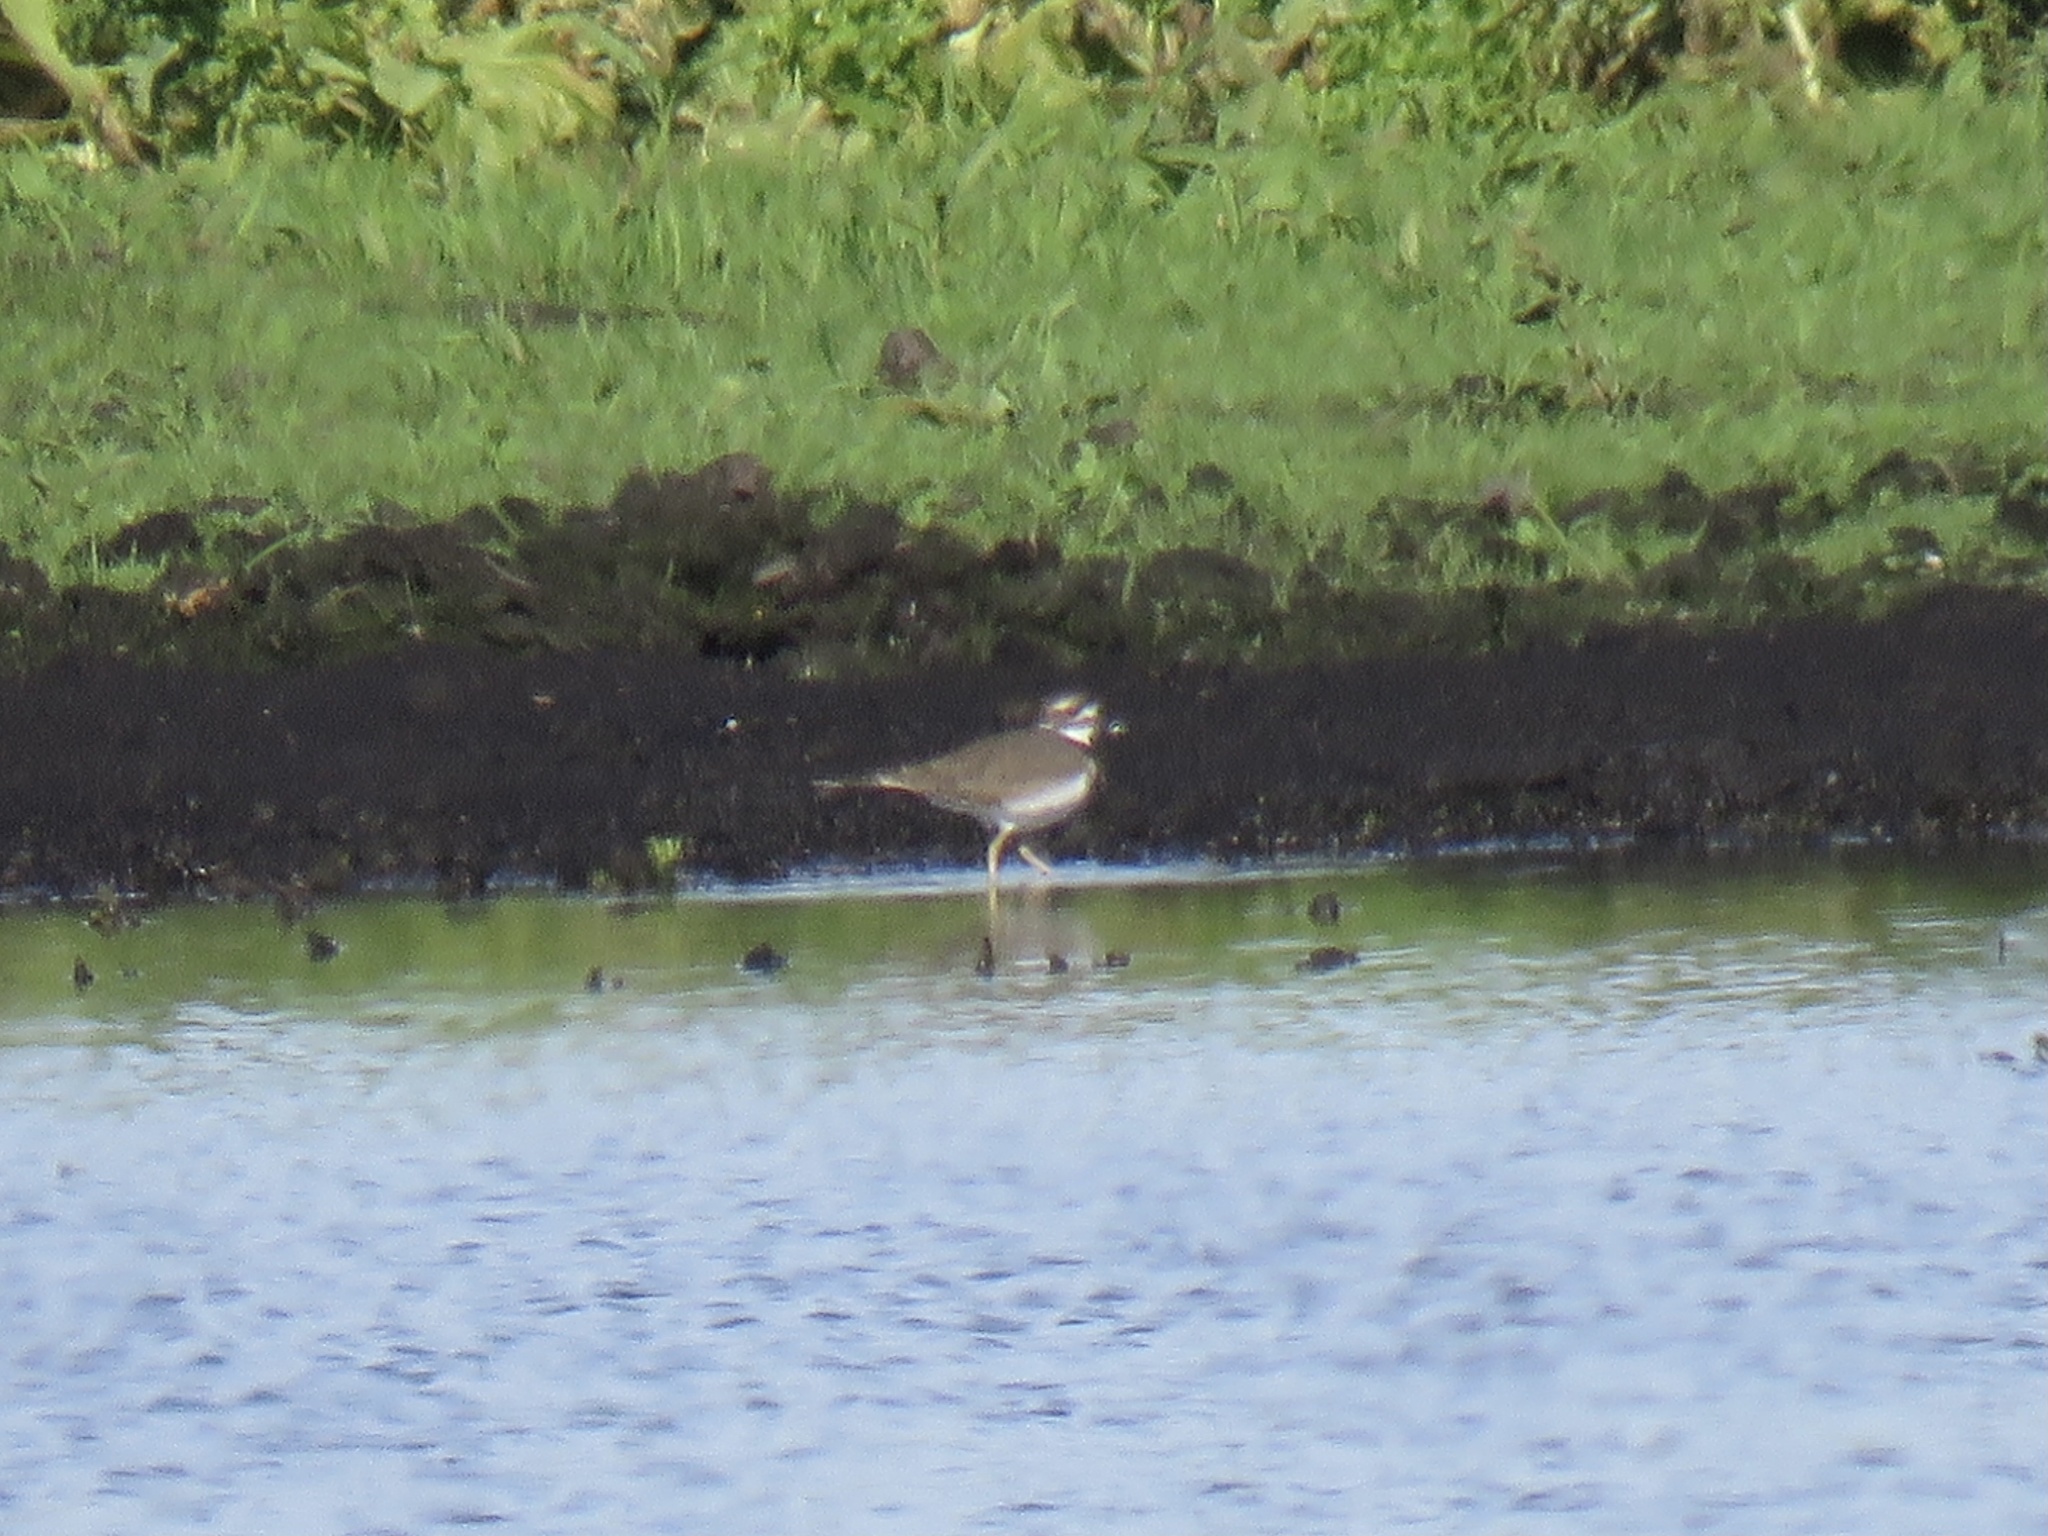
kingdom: Animalia
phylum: Chordata
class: Aves
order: Charadriiformes
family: Charadriidae
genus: Charadrius
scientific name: Charadrius vociferus
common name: Killdeer
